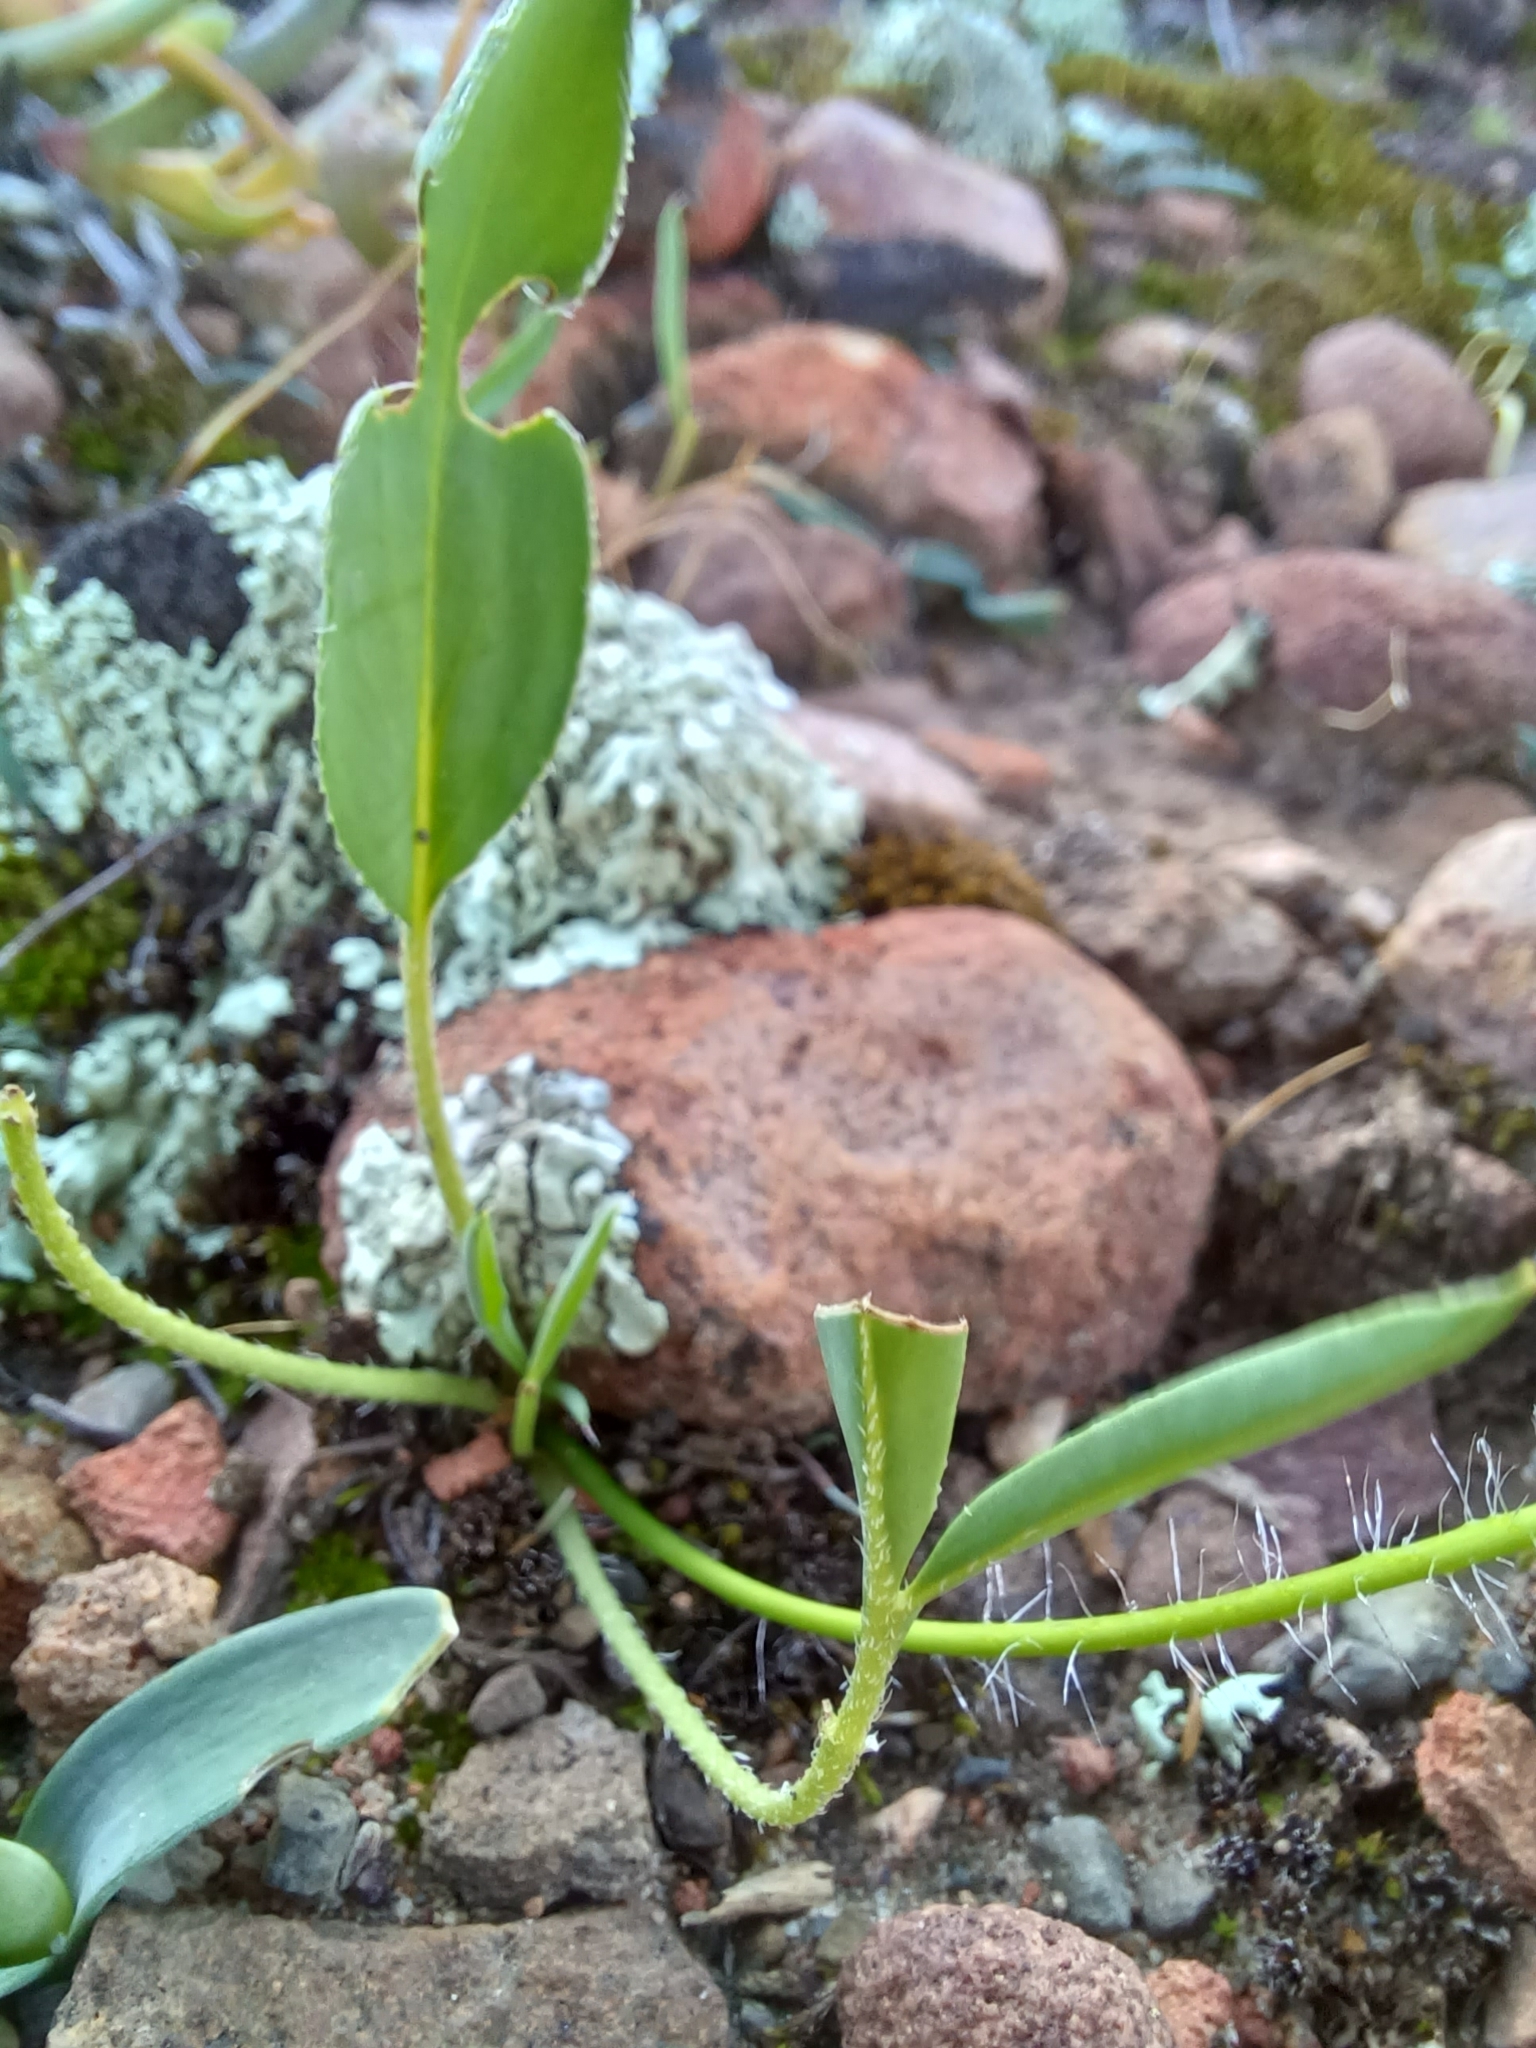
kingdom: Plantae
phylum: Tracheophyta
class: Magnoliopsida
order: Geraniales
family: Geraniaceae
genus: Pelargonium
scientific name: Pelargonium undulatum
